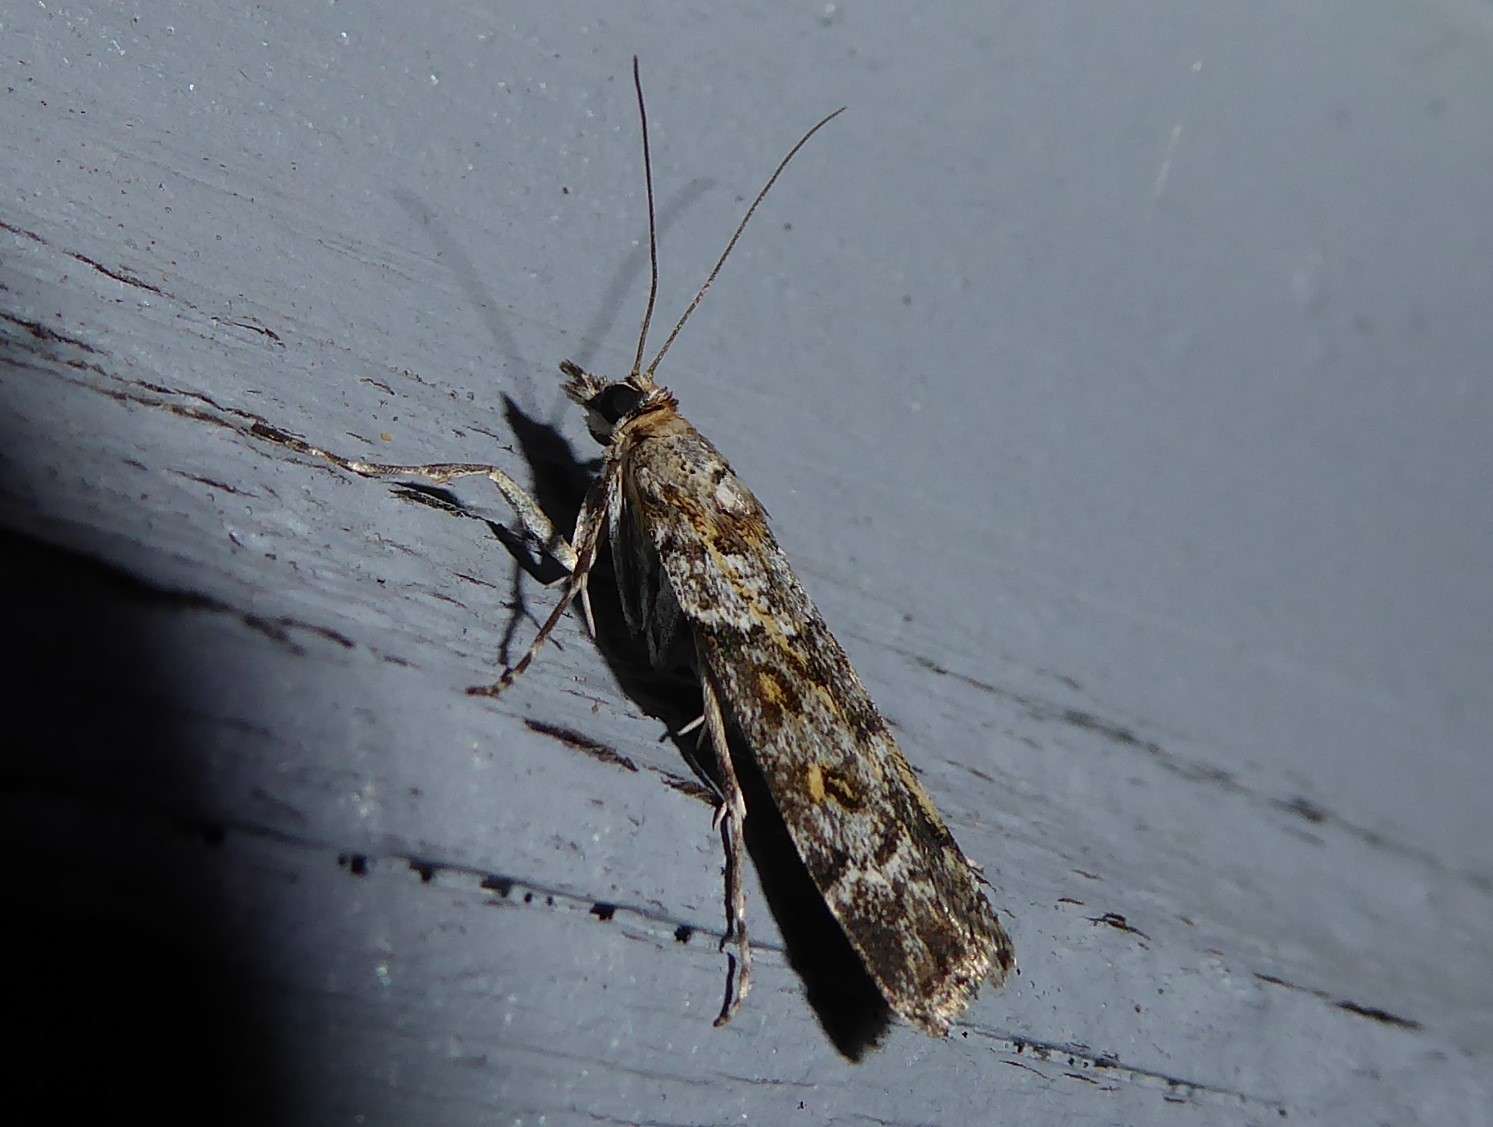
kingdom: Animalia
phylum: Arthropoda
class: Insecta
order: Lepidoptera
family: Crambidae
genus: Eudonia
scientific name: Eudonia diphtheralis
